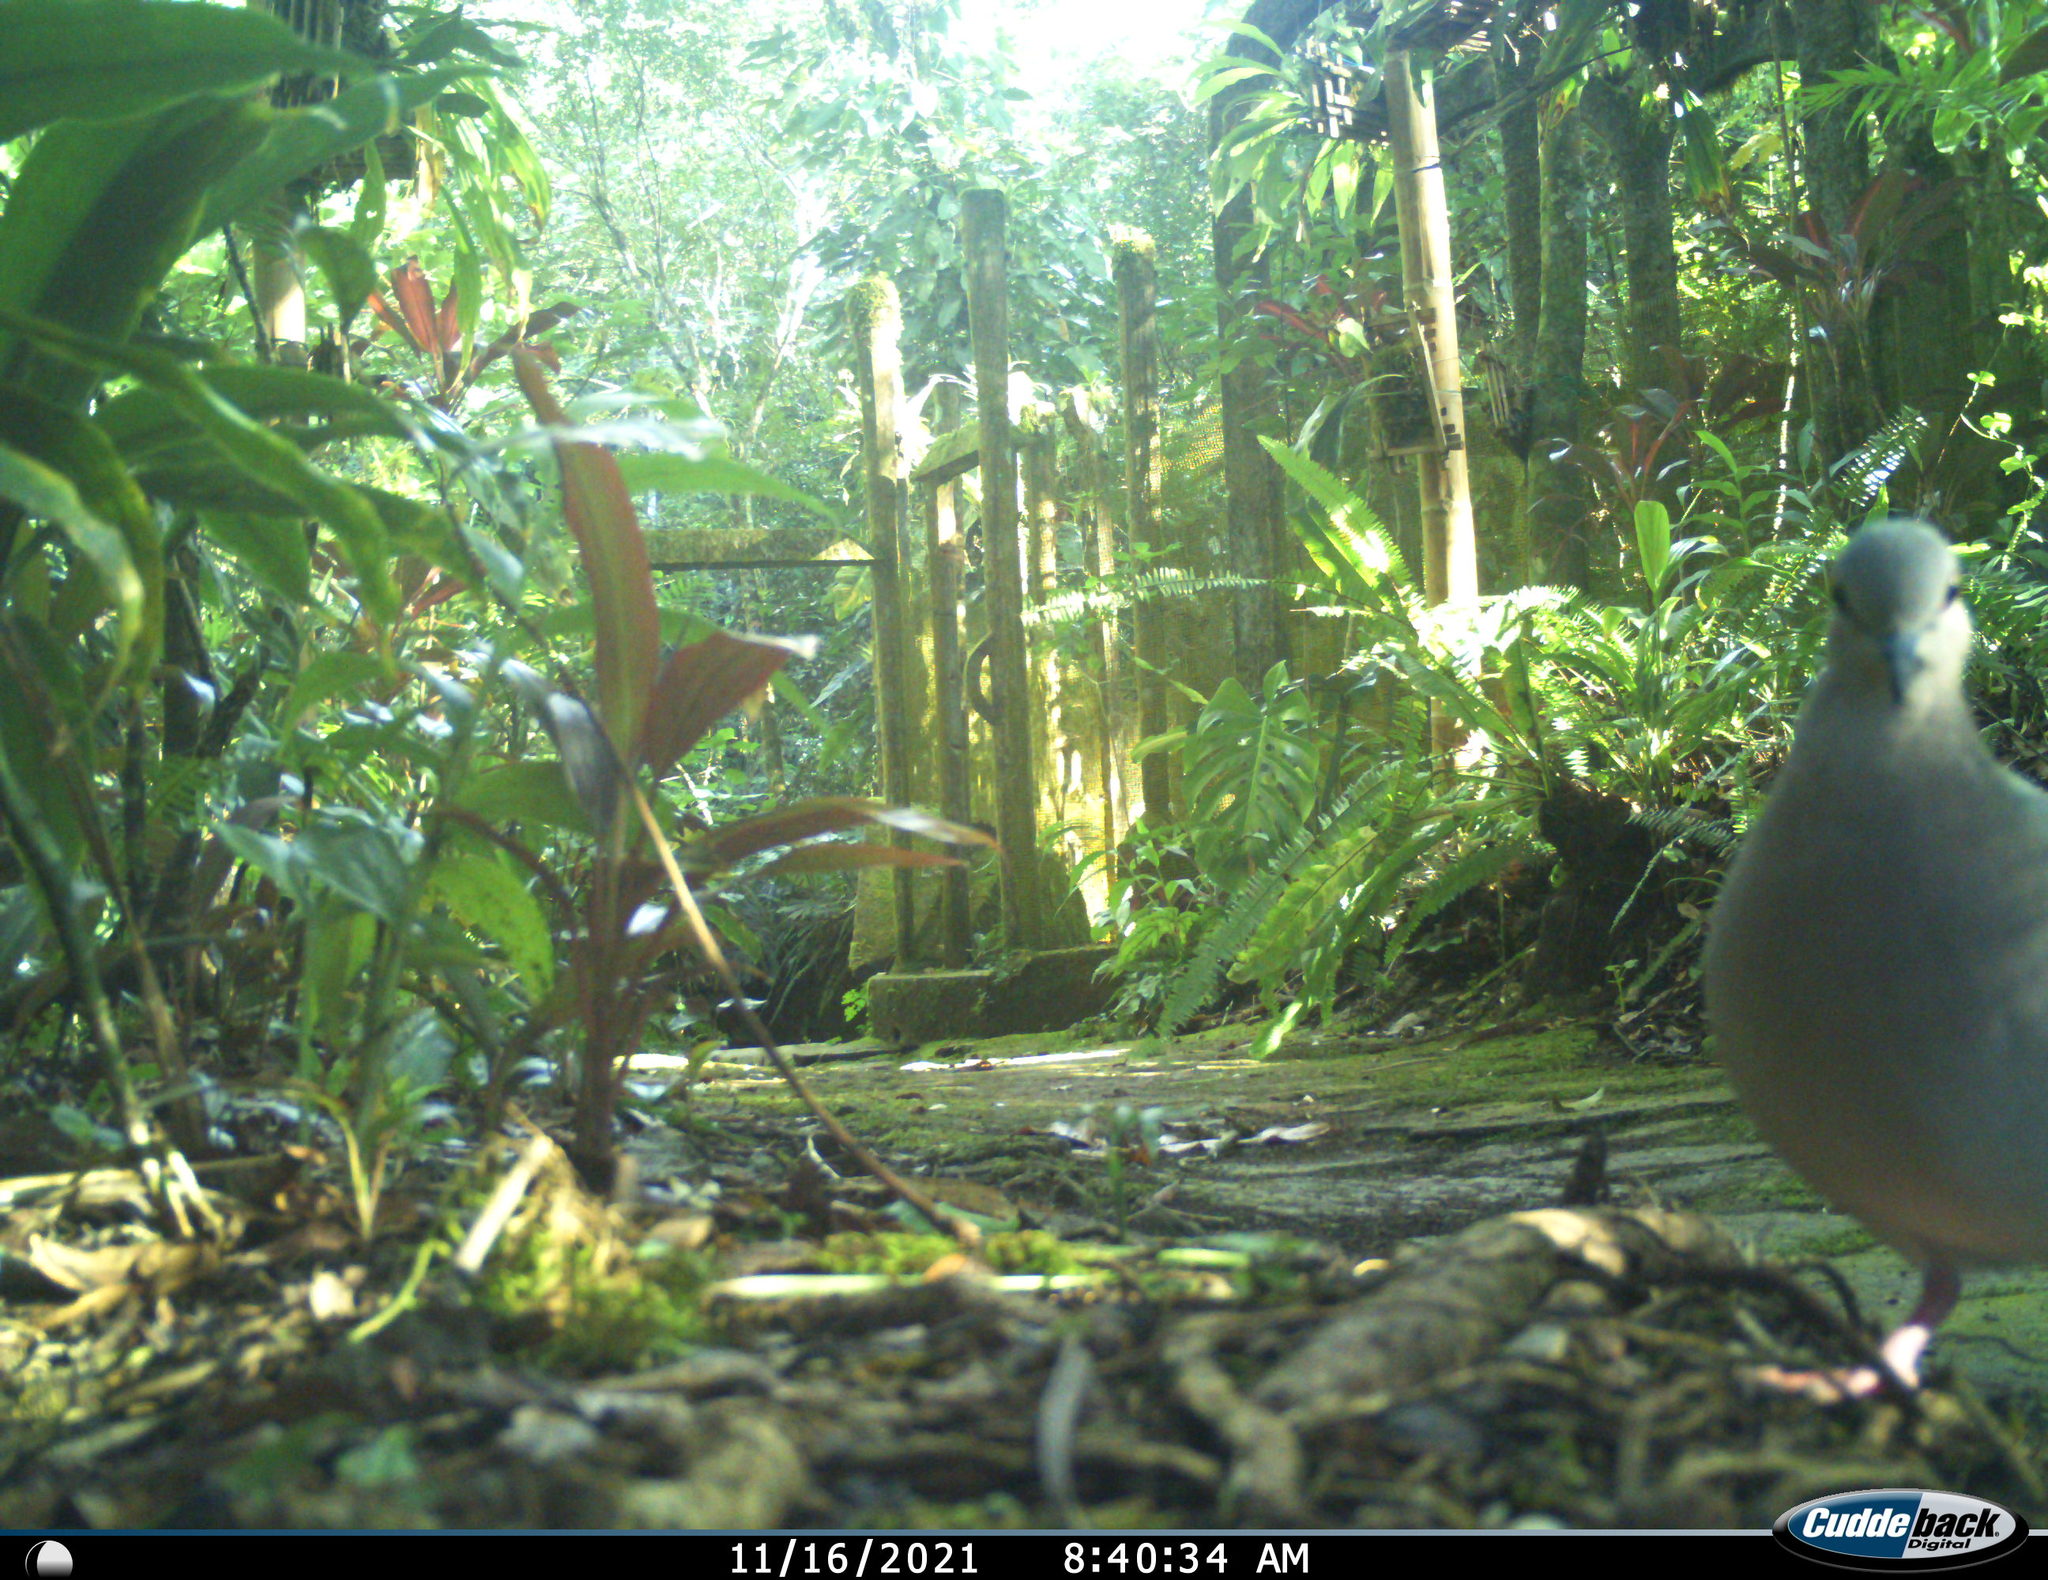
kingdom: Animalia
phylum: Chordata
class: Aves
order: Columbiformes
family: Columbidae
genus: Leptotila
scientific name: Leptotila verreauxi
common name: White-tipped dove
